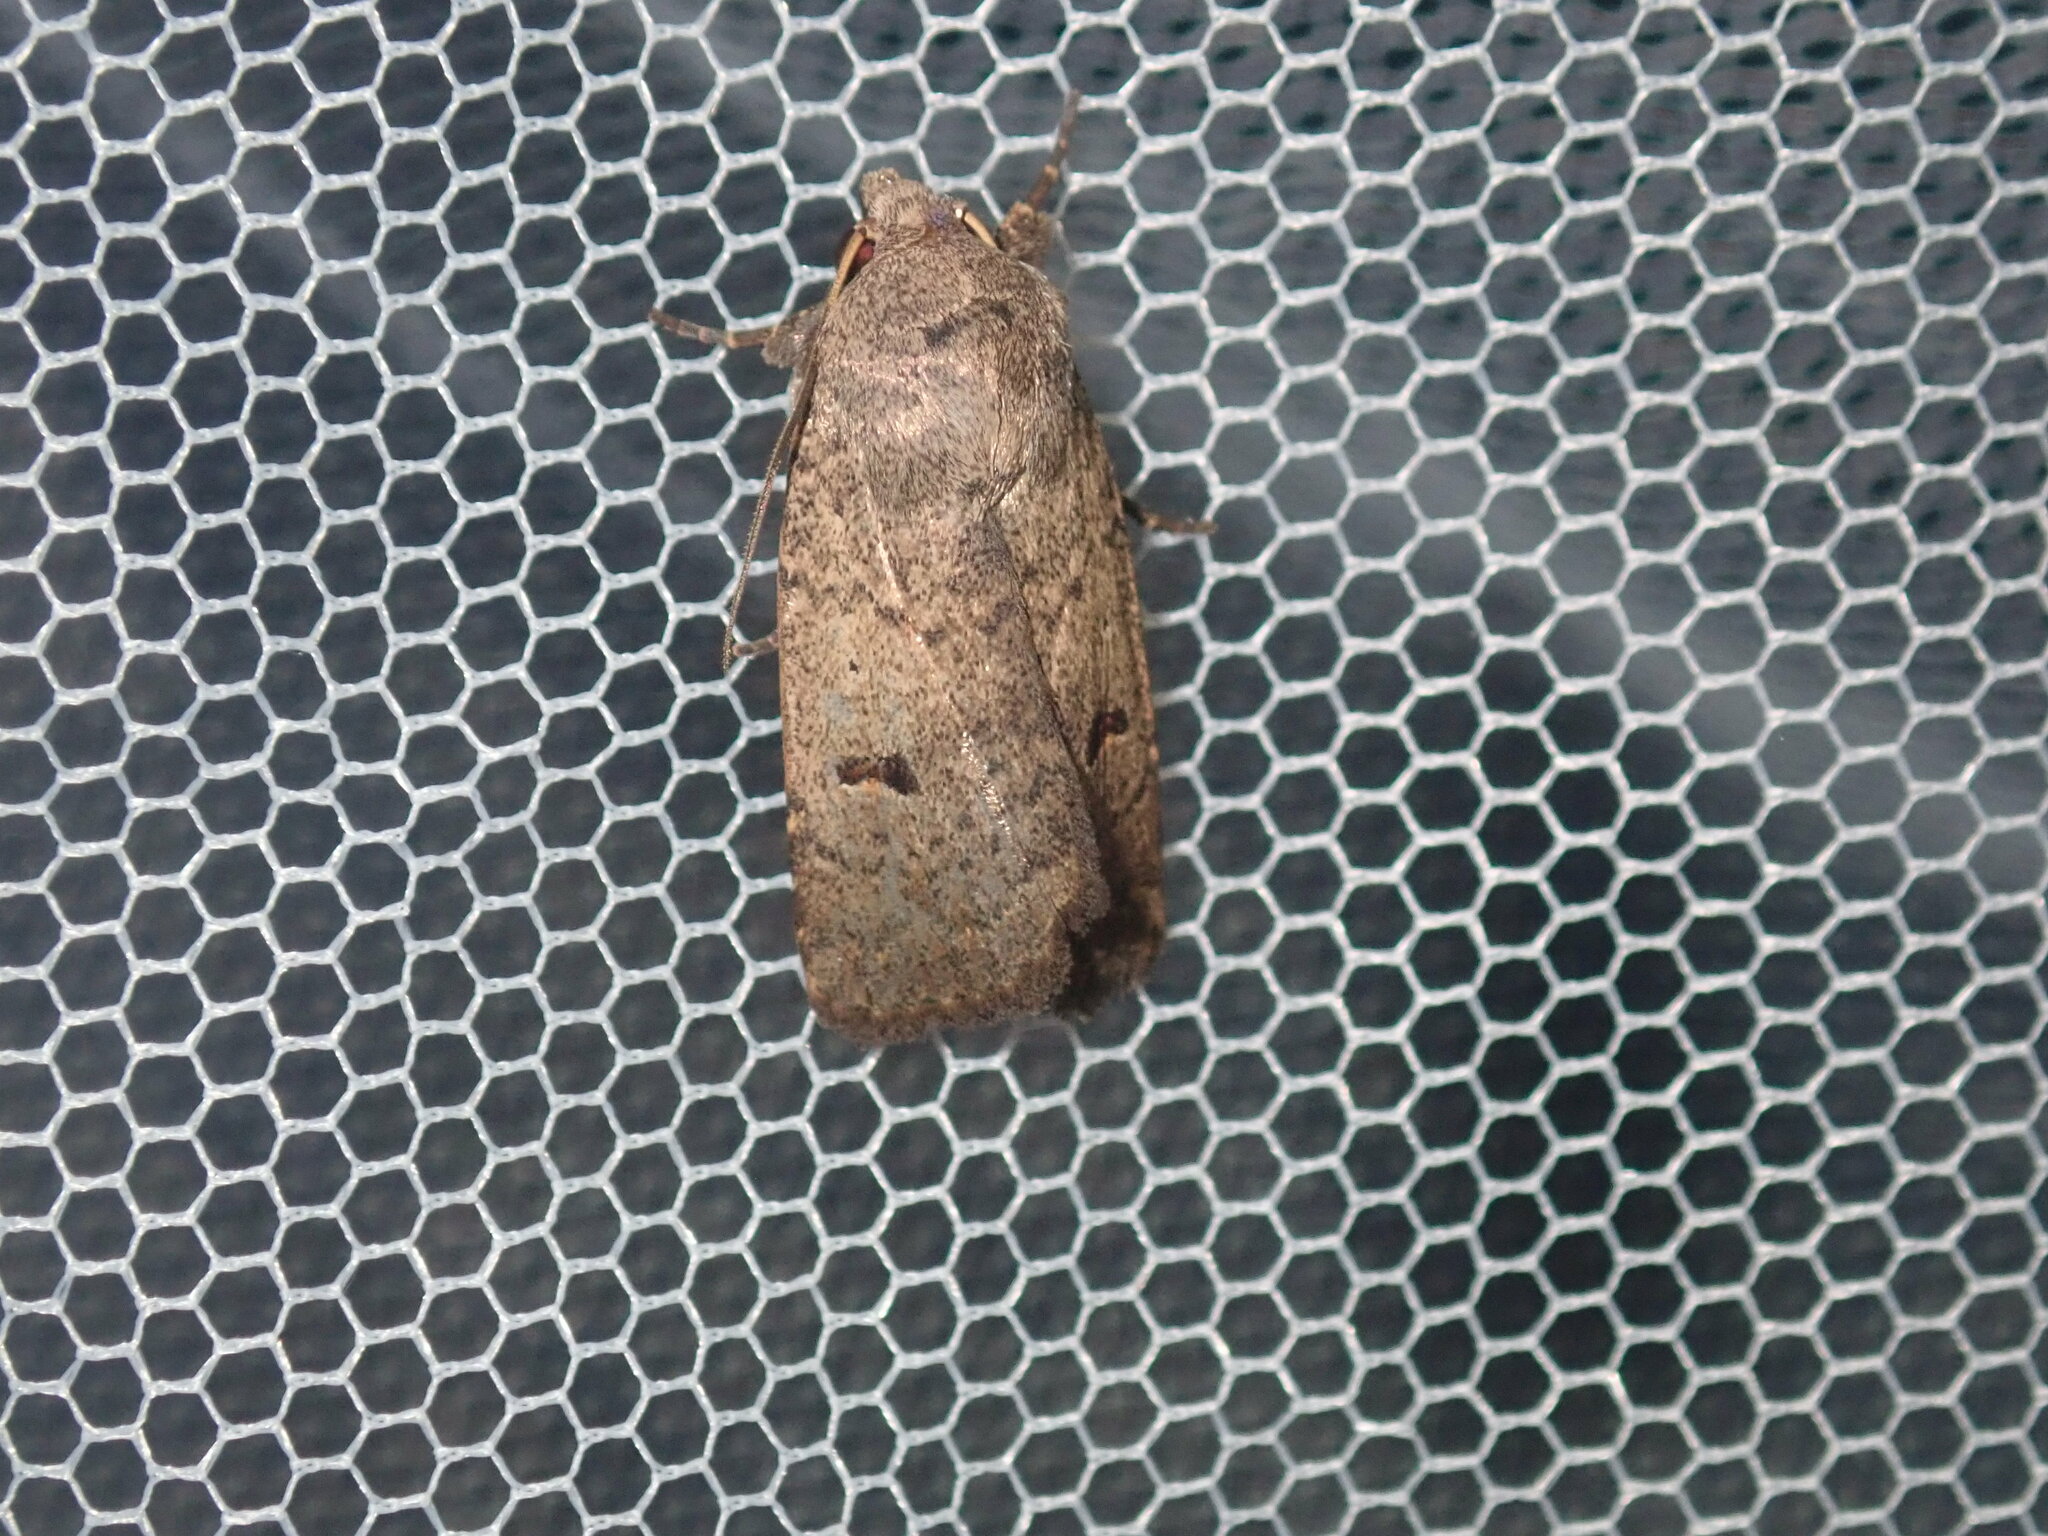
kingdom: Animalia
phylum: Arthropoda
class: Insecta
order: Lepidoptera
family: Noctuidae
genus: Proteuxoa
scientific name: Proteuxoa hypochalchis
